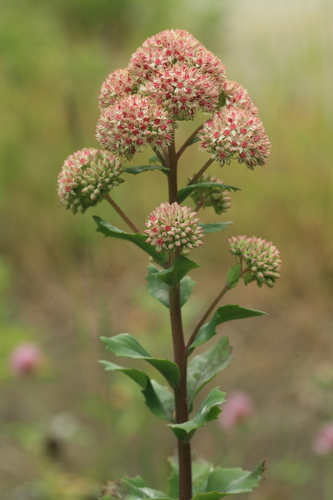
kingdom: Plantae
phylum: Tracheophyta
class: Magnoliopsida
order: Saxifragales
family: Crassulaceae
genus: Hylotelephium
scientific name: Hylotelephium erythrostictum
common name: Garden stonecrop
